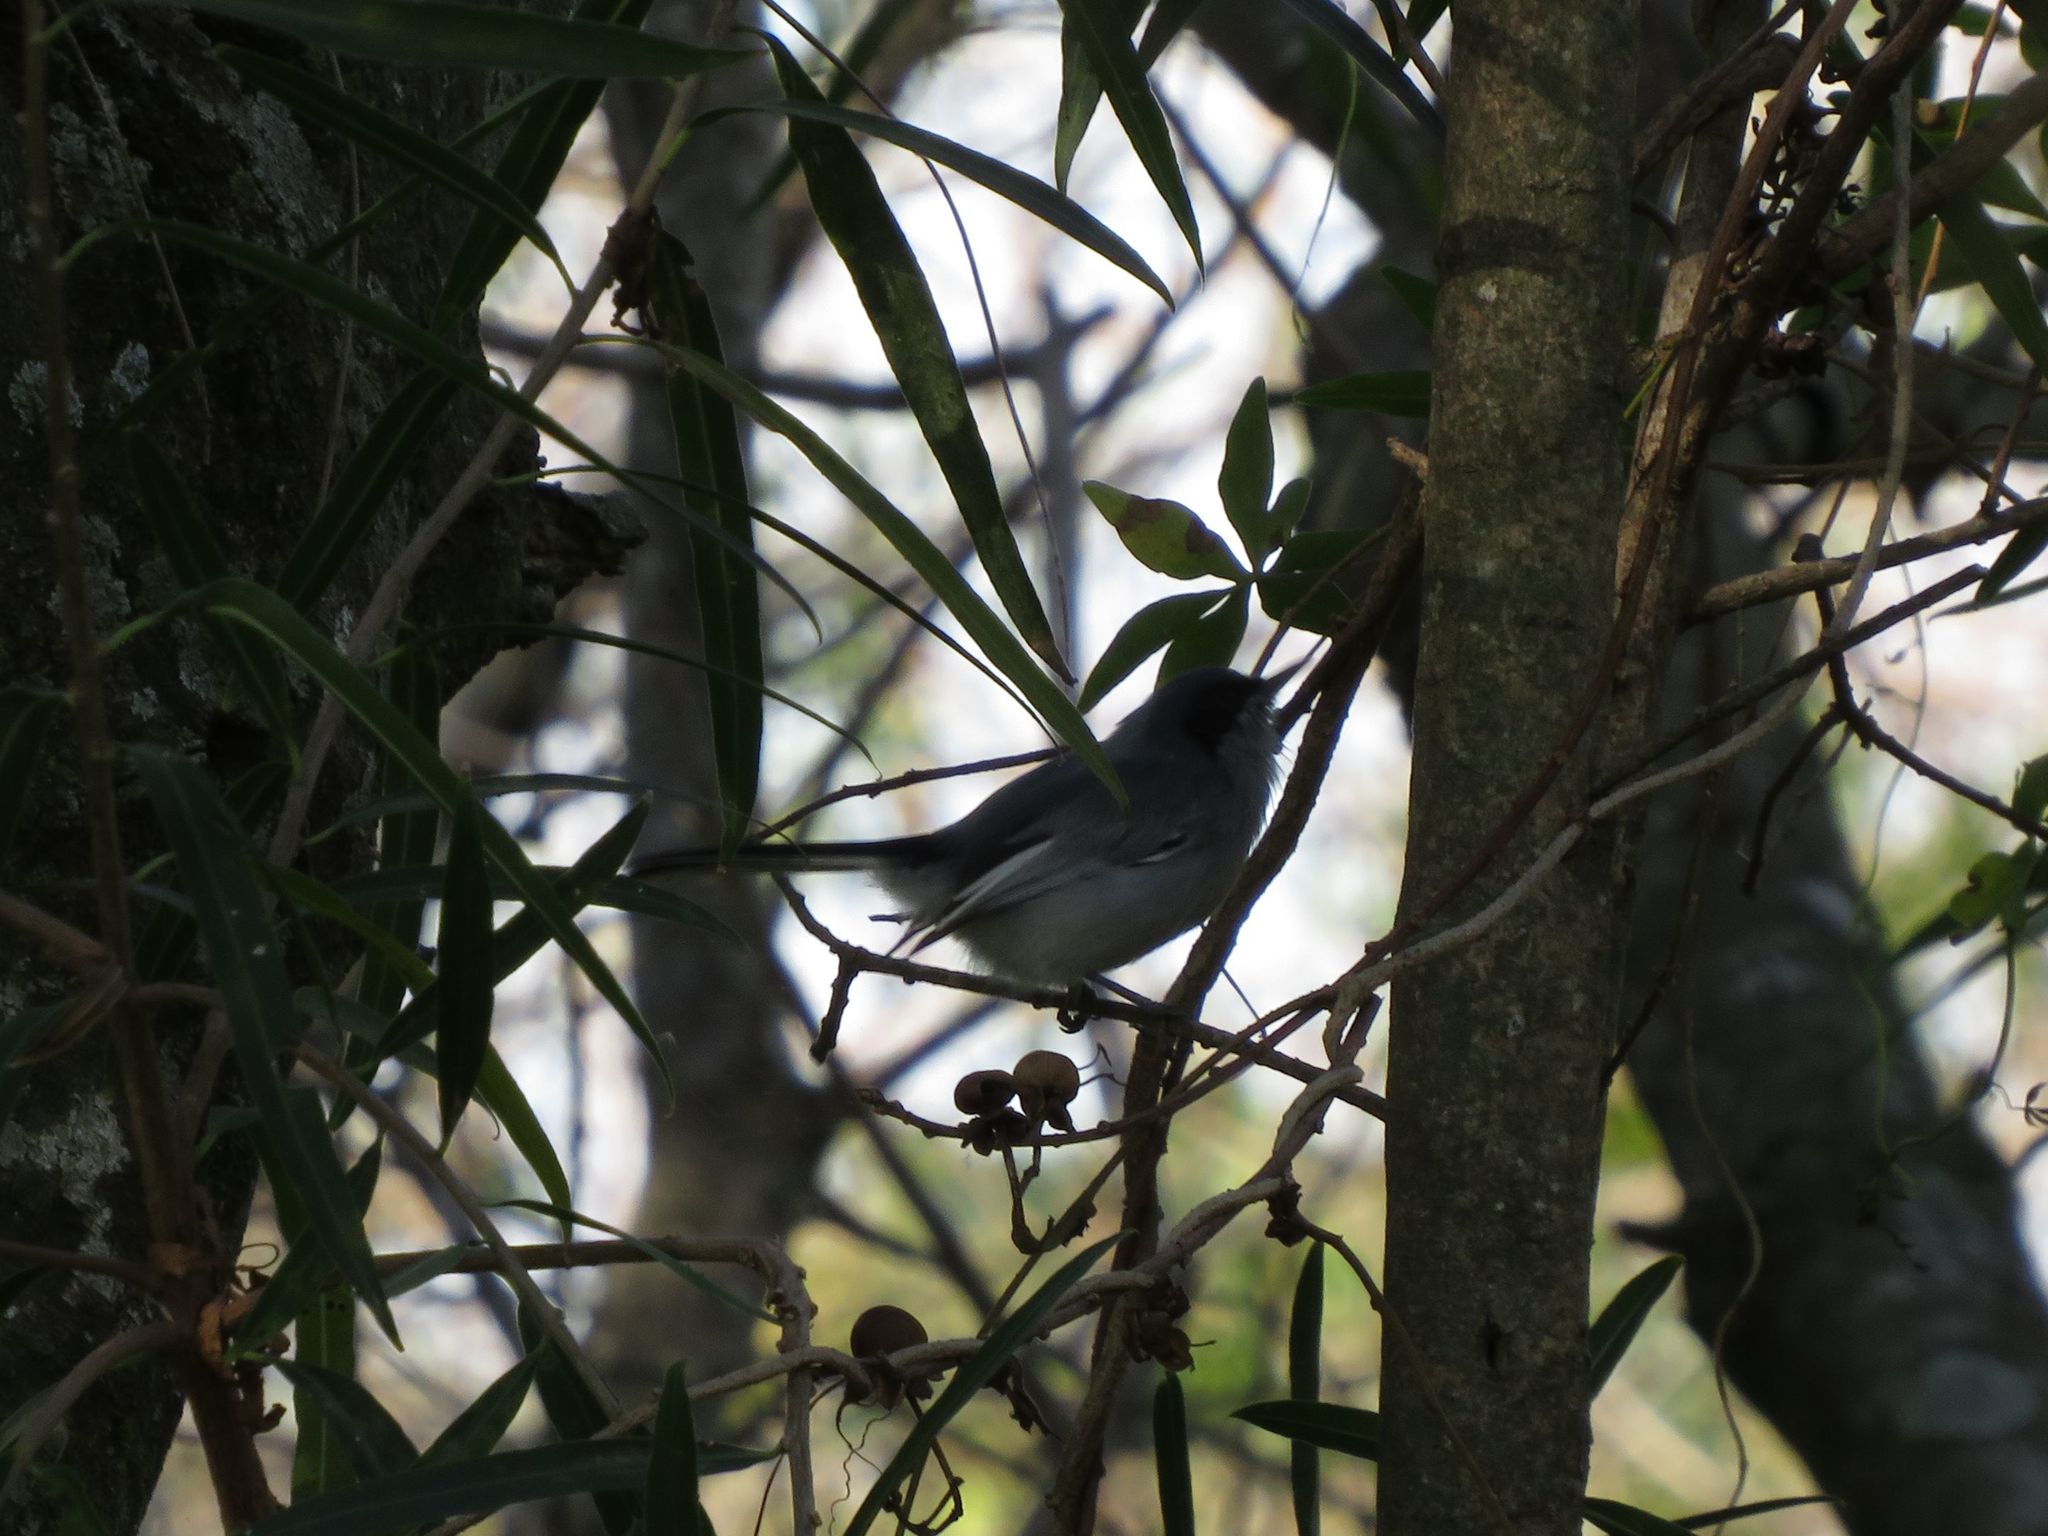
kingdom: Animalia
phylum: Chordata
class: Aves
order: Passeriformes
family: Polioptilidae
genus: Polioptila
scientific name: Polioptila dumicola
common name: Masked gnatcatcher
